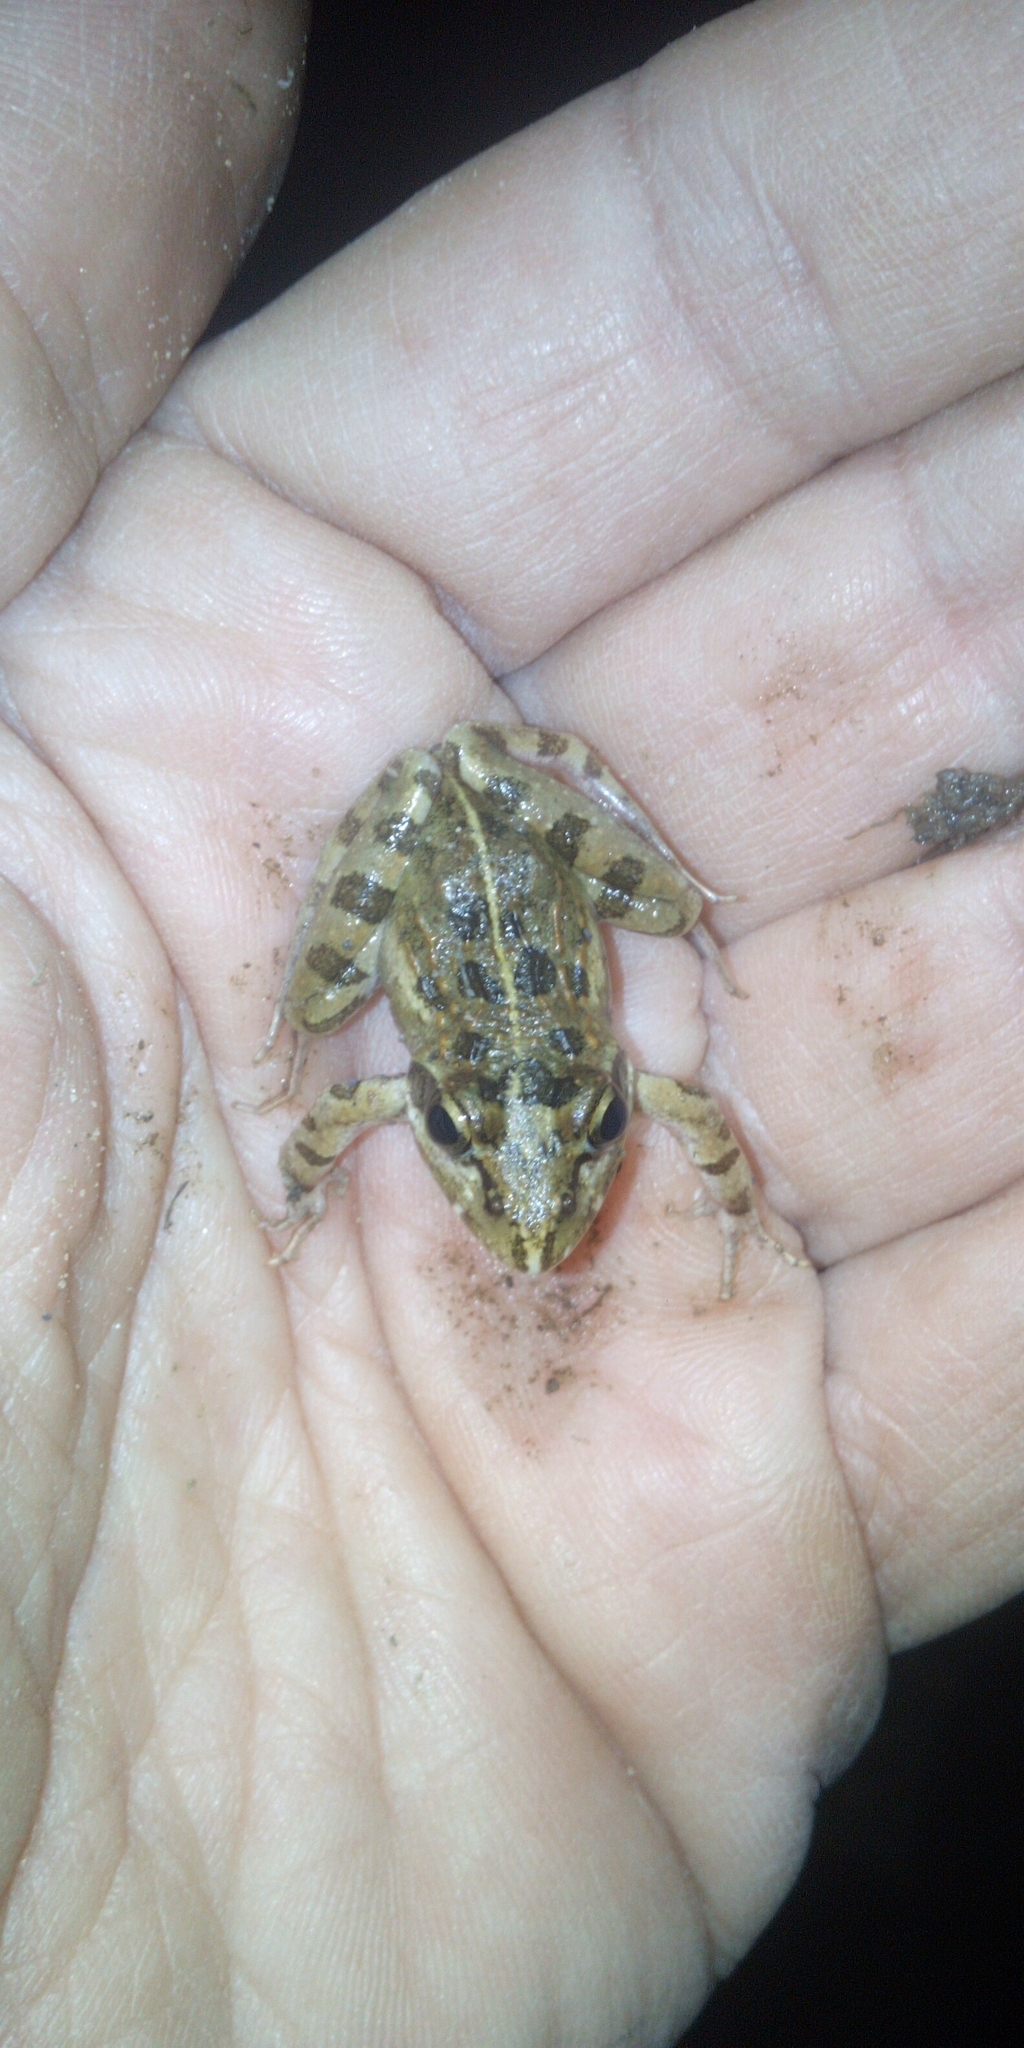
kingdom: Animalia
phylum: Chordata
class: Amphibia
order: Anura
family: Pyxicephalidae
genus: Strongylopus
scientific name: Strongylopus grayii
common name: Gray's stream frog
